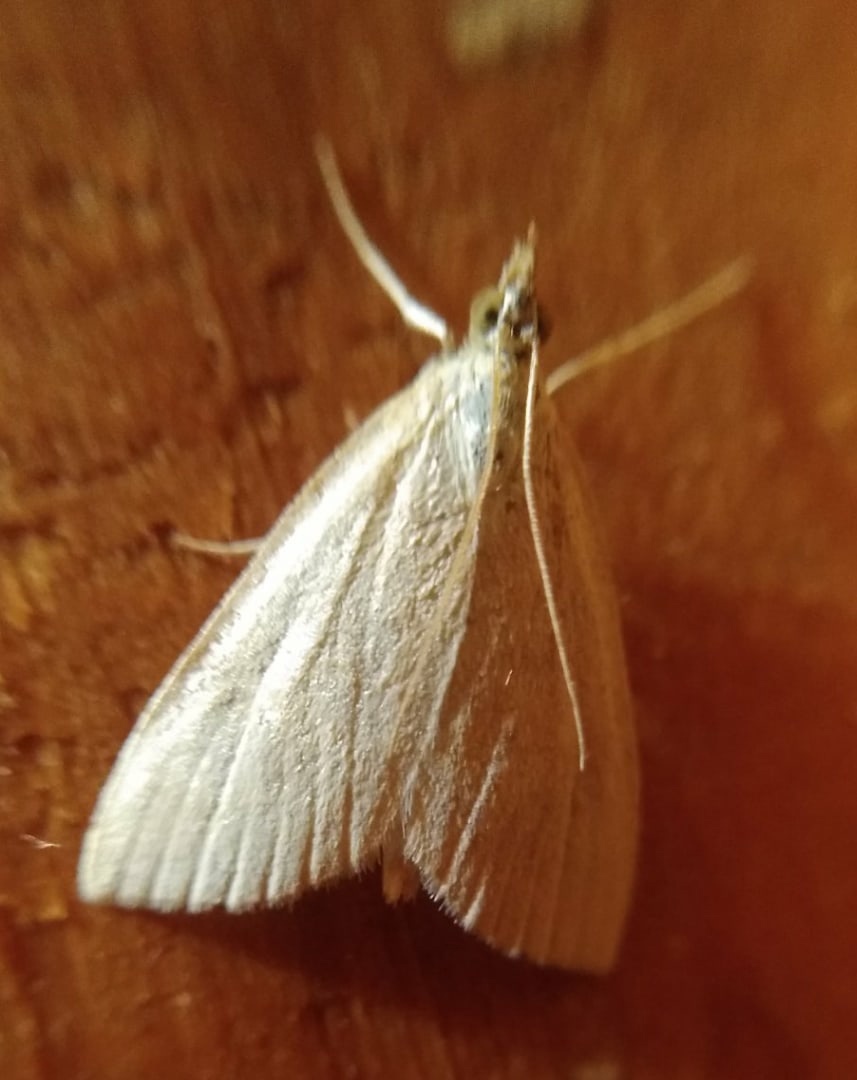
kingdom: Animalia
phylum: Arthropoda
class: Insecta
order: Lepidoptera
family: Crambidae
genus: Udea
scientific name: Udea lutealis
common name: Pale straw pearl
